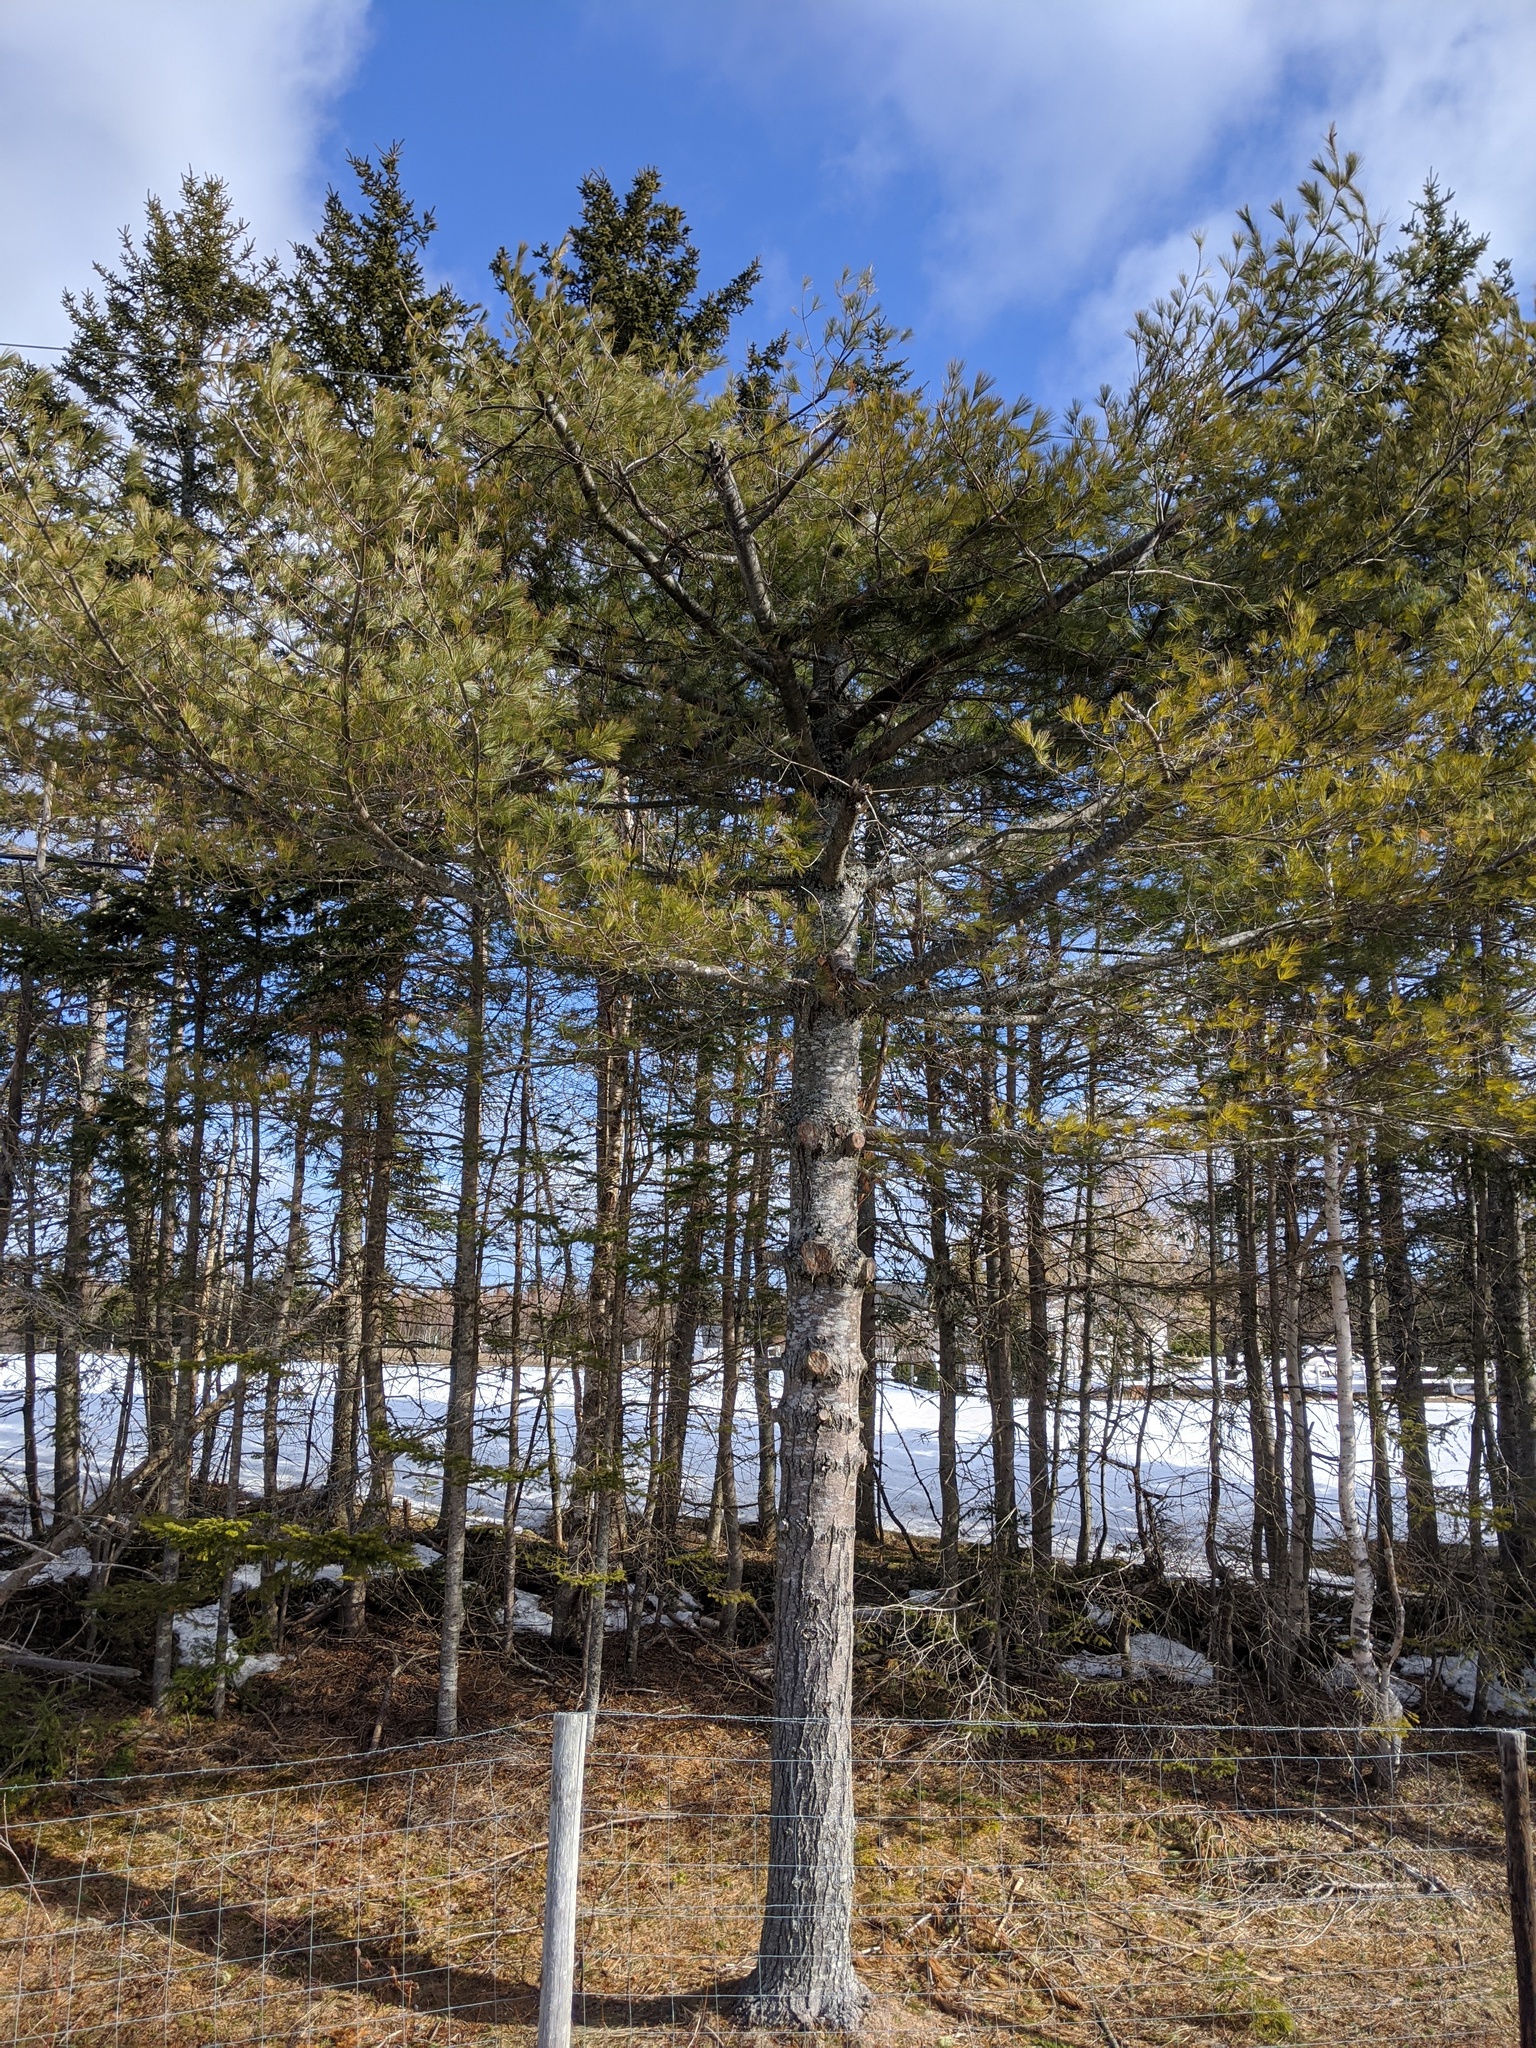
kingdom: Plantae
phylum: Tracheophyta
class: Pinopsida
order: Pinales
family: Pinaceae
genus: Pinus
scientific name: Pinus strobus
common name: Weymouth pine
